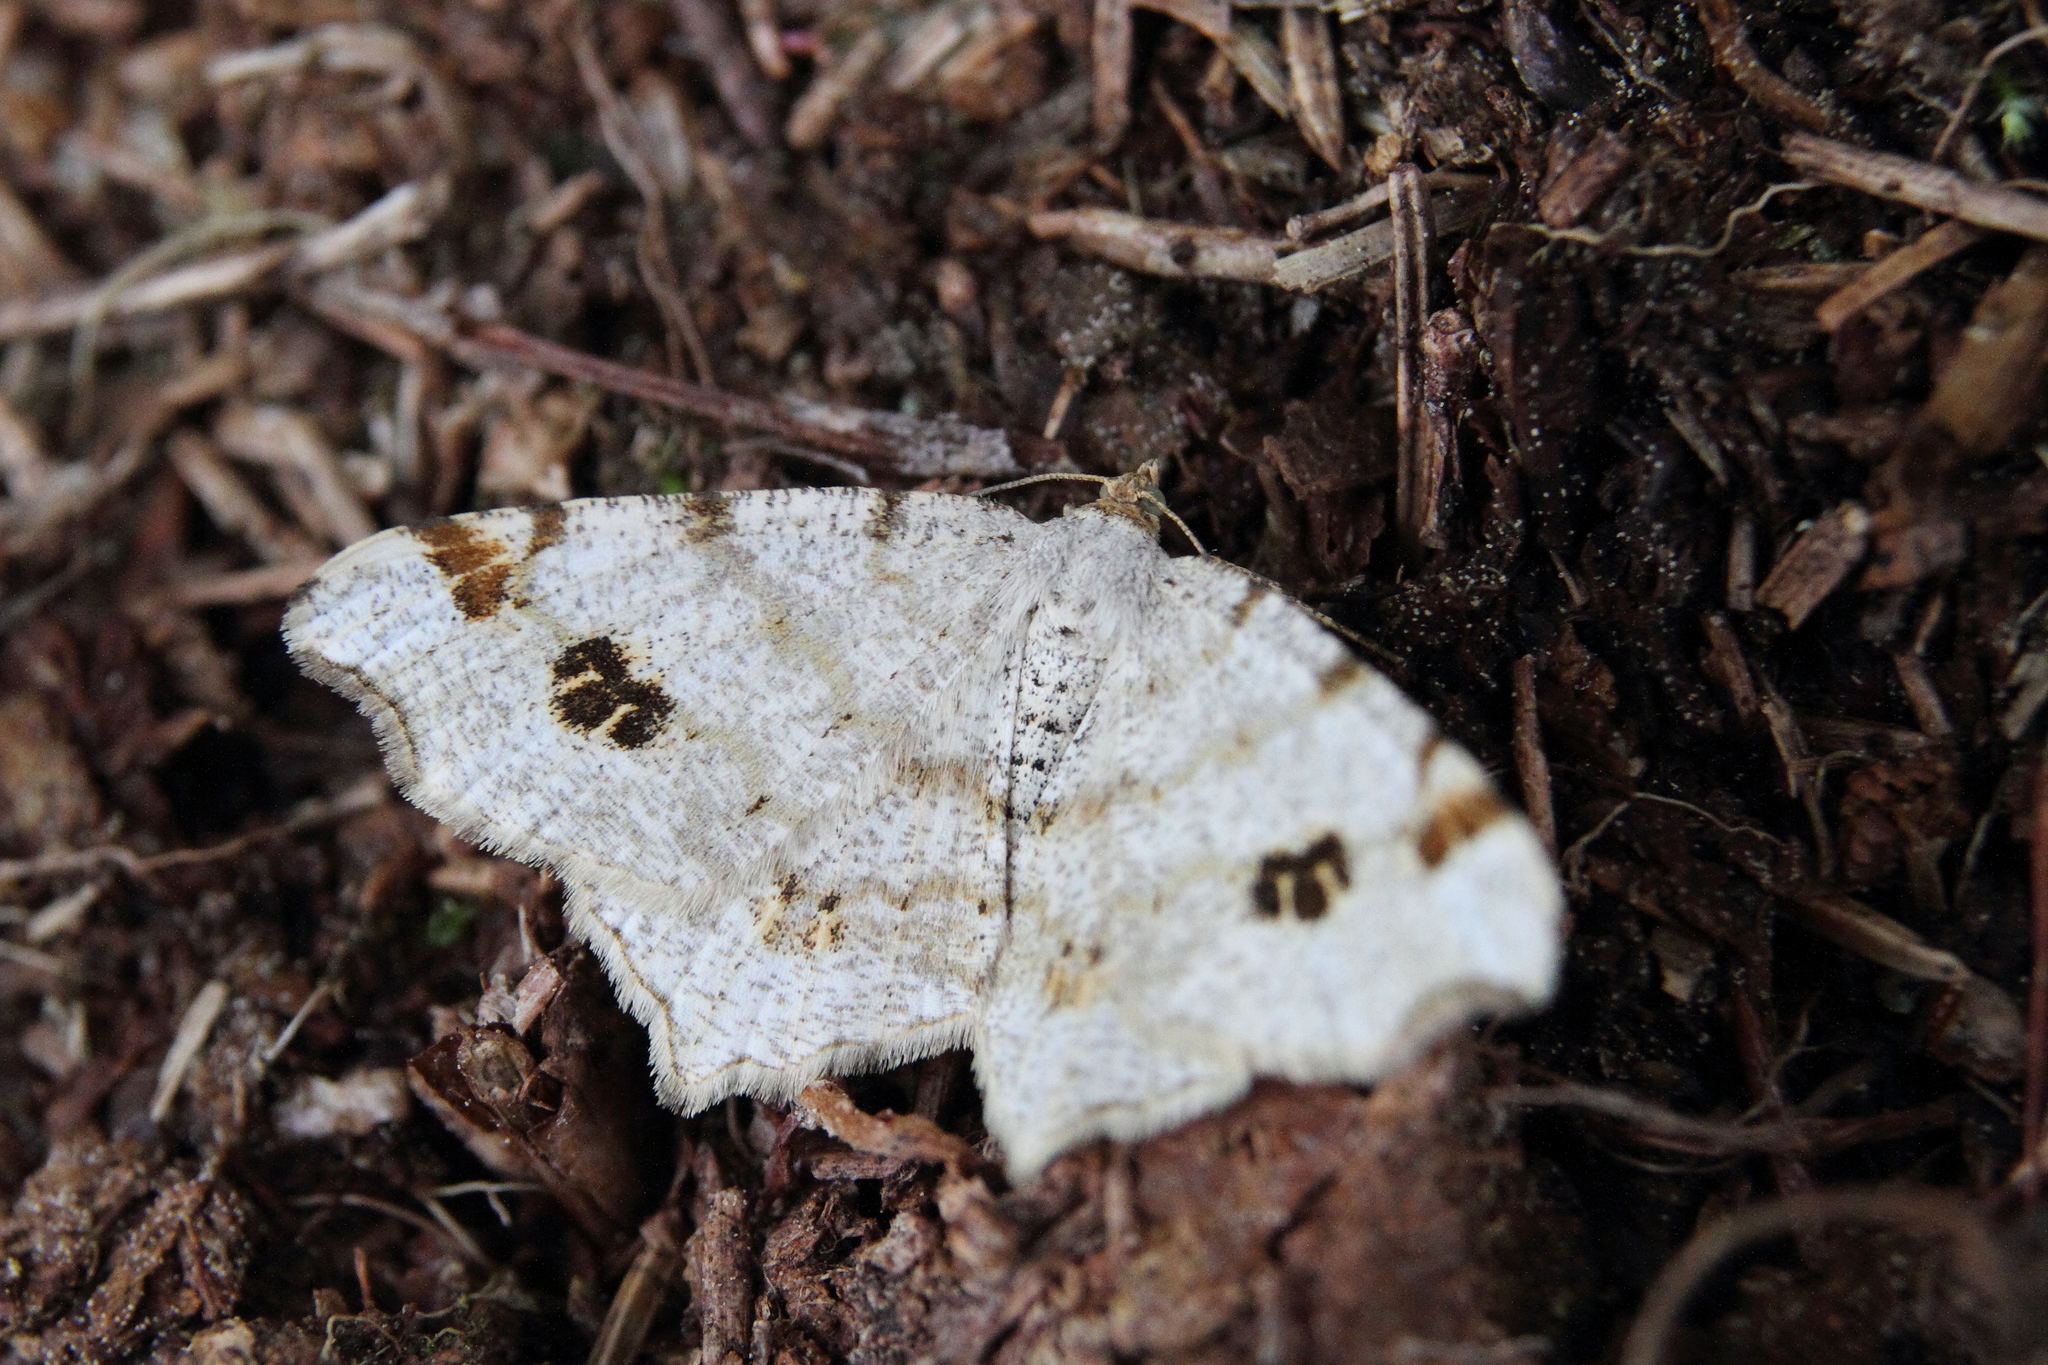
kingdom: Animalia
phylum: Arthropoda
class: Insecta
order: Lepidoptera
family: Geometridae
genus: Macaria
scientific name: Macaria notata
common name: Peacock moth
